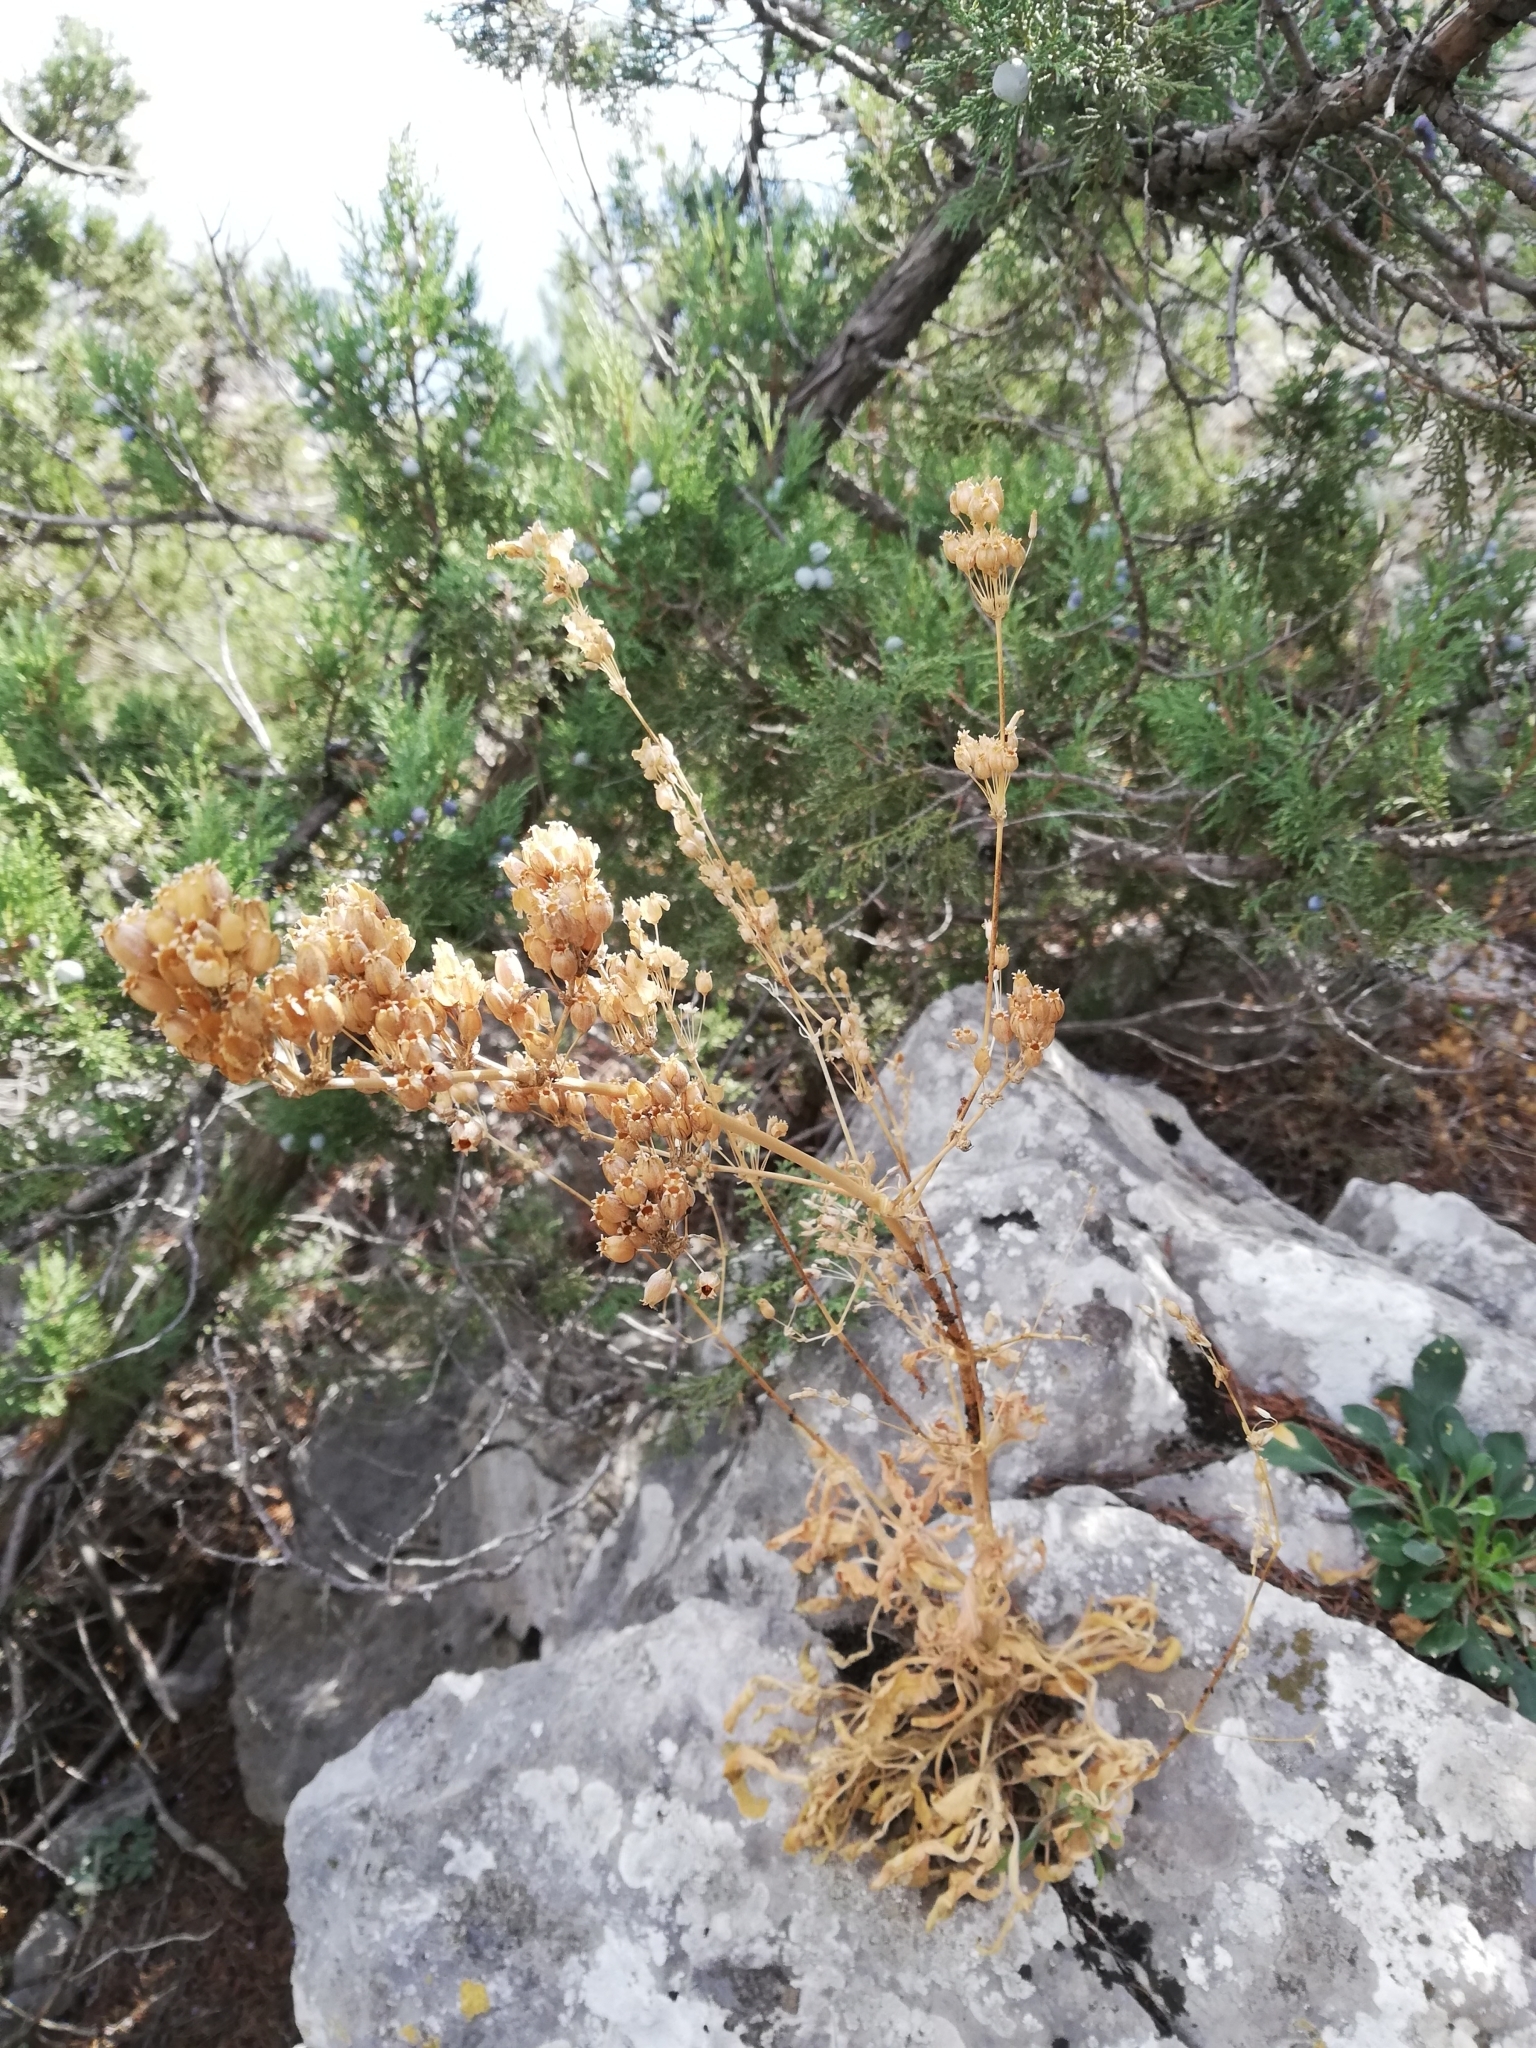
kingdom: Plantae
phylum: Tracheophyta
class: Magnoliopsida
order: Caryophyllales
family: Caryophyllaceae
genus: Silene
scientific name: Silene densiflora
